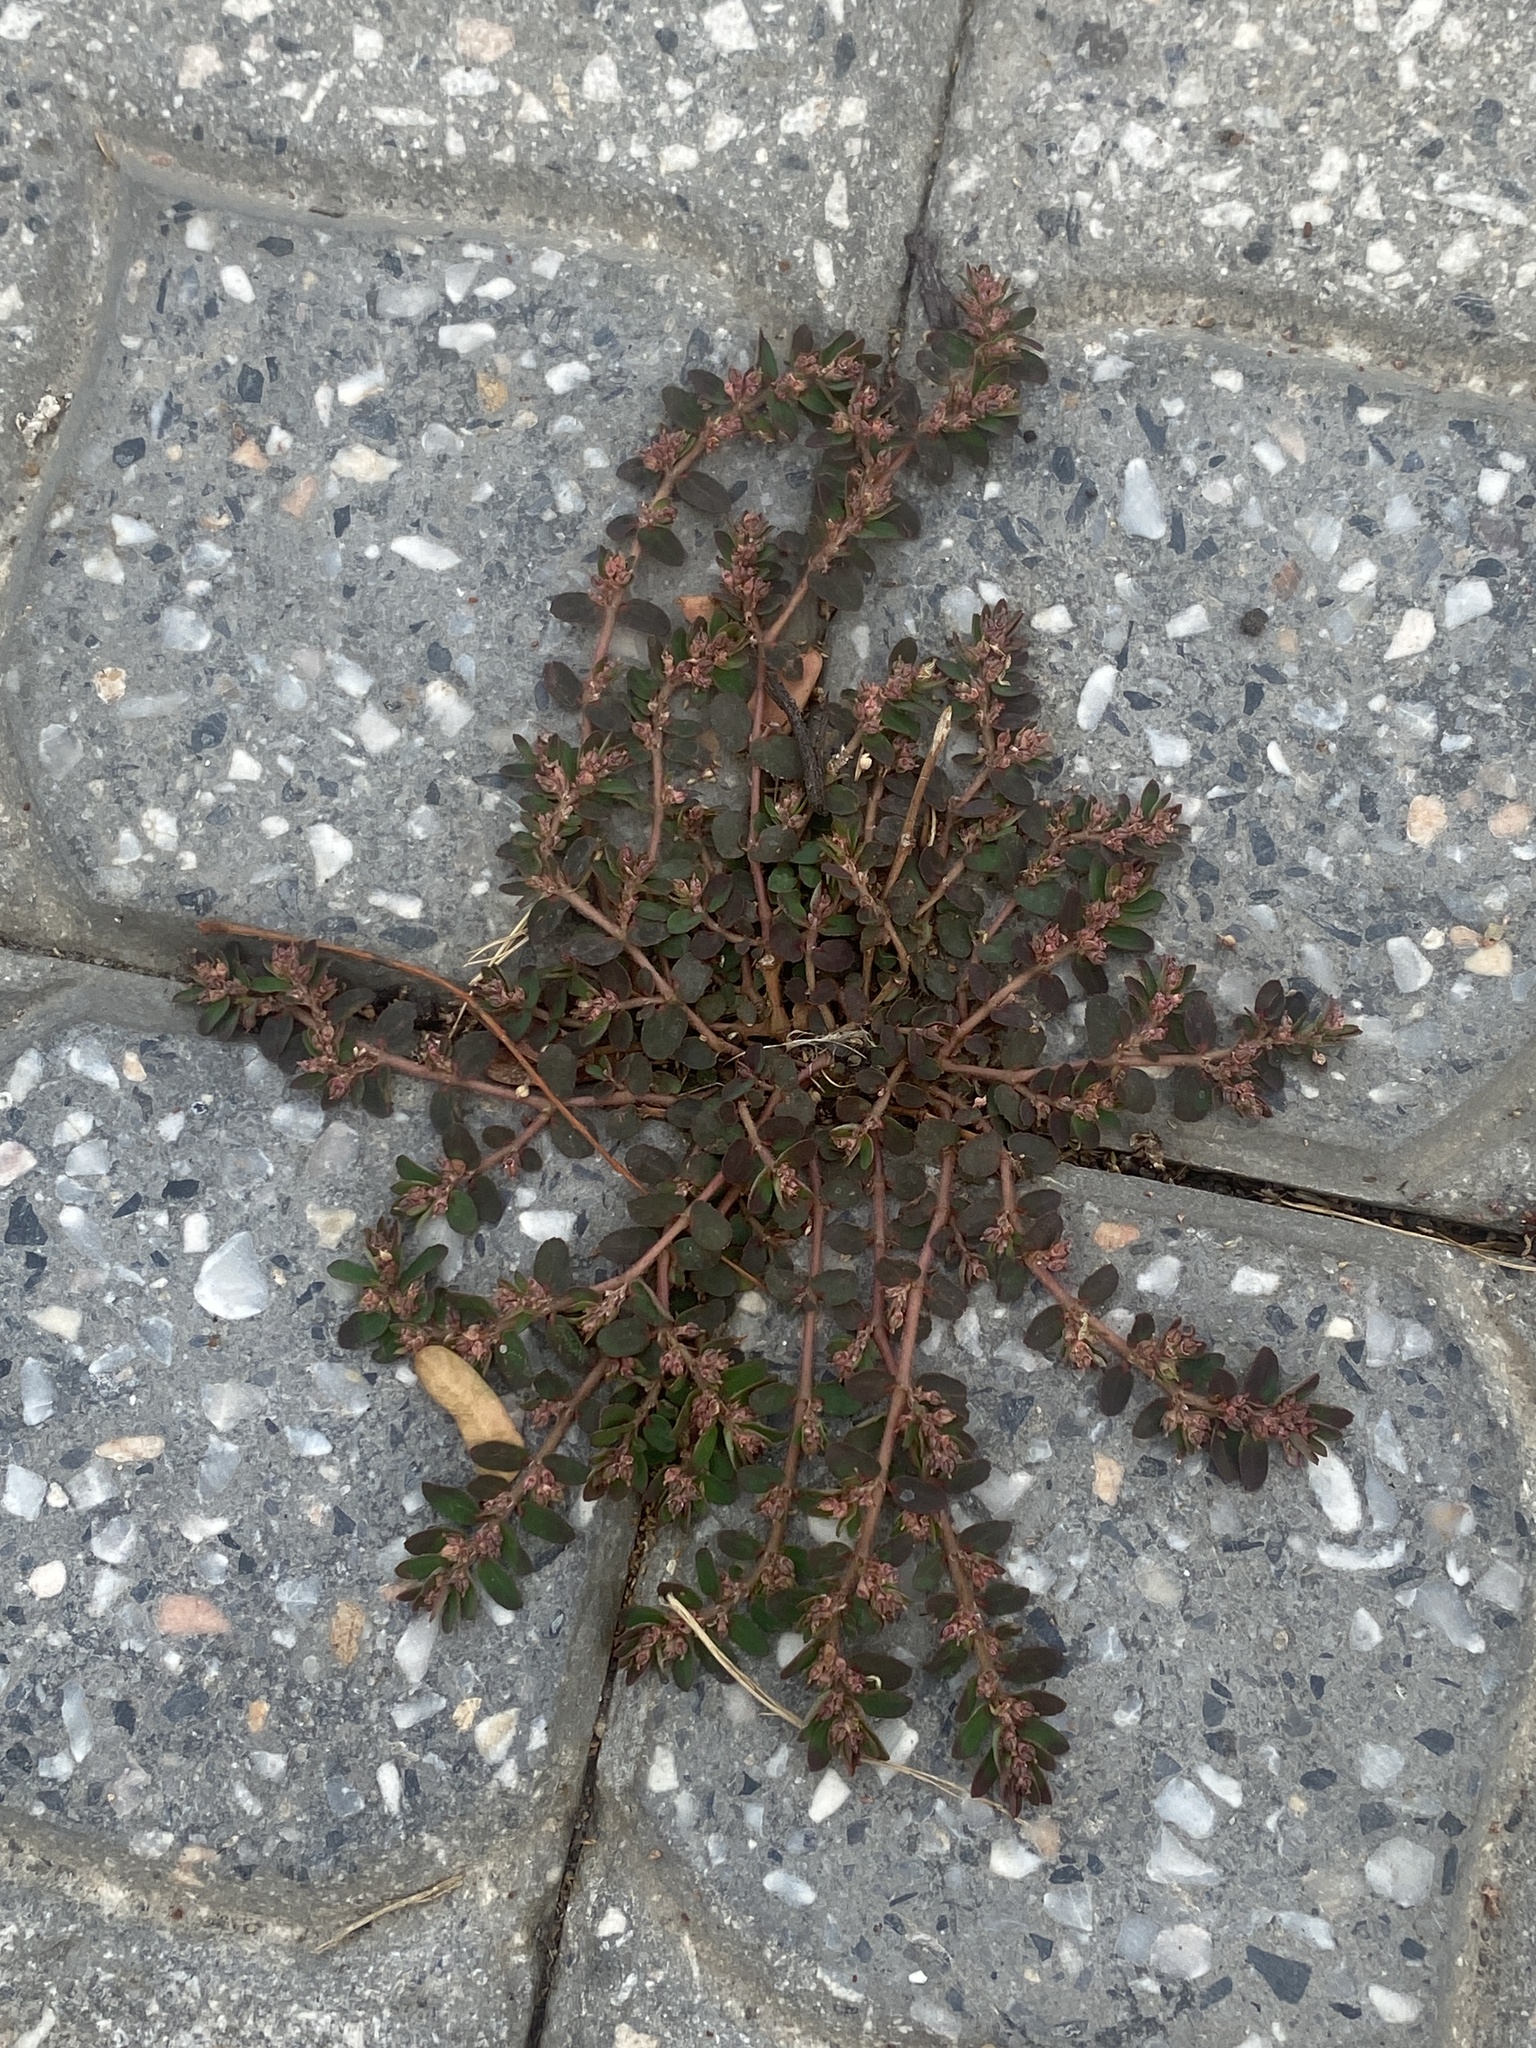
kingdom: Plantae
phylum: Tracheophyta
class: Magnoliopsida
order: Malpighiales
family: Euphorbiaceae
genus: Euphorbia
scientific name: Euphorbia thymifolia
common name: Gulf sandmat
